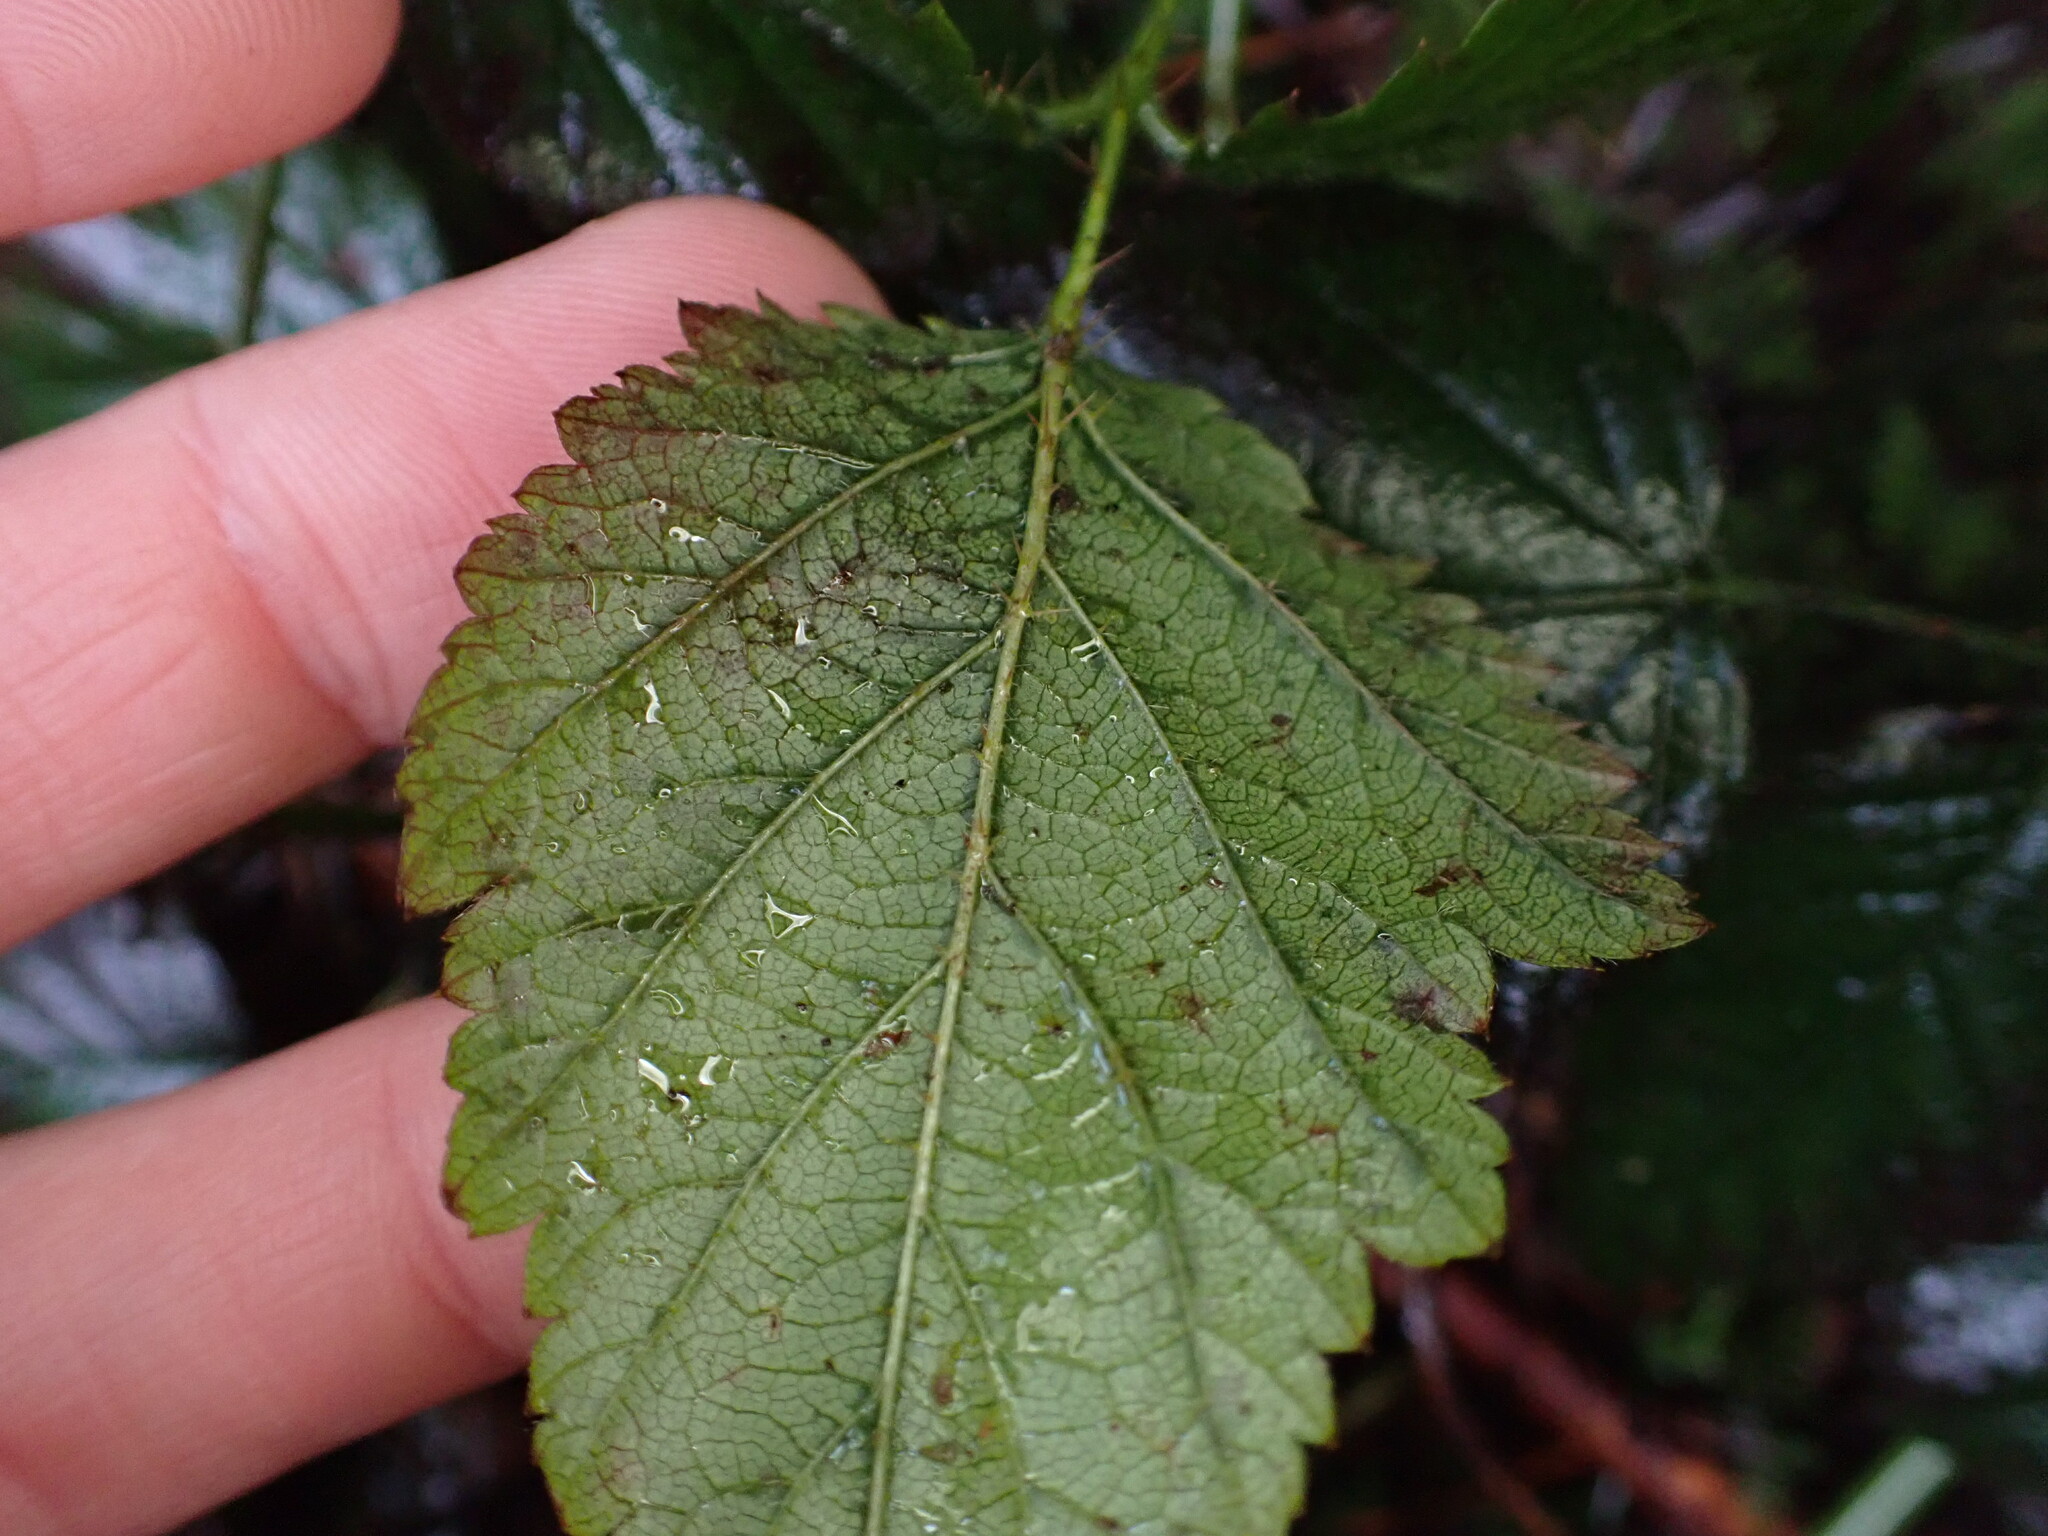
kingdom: Plantae
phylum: Tracheophyta
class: Magnoliopsida
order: Rosales
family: Rosaceae
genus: Rubus
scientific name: Rubus ursinus
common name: Pacific blackberry
